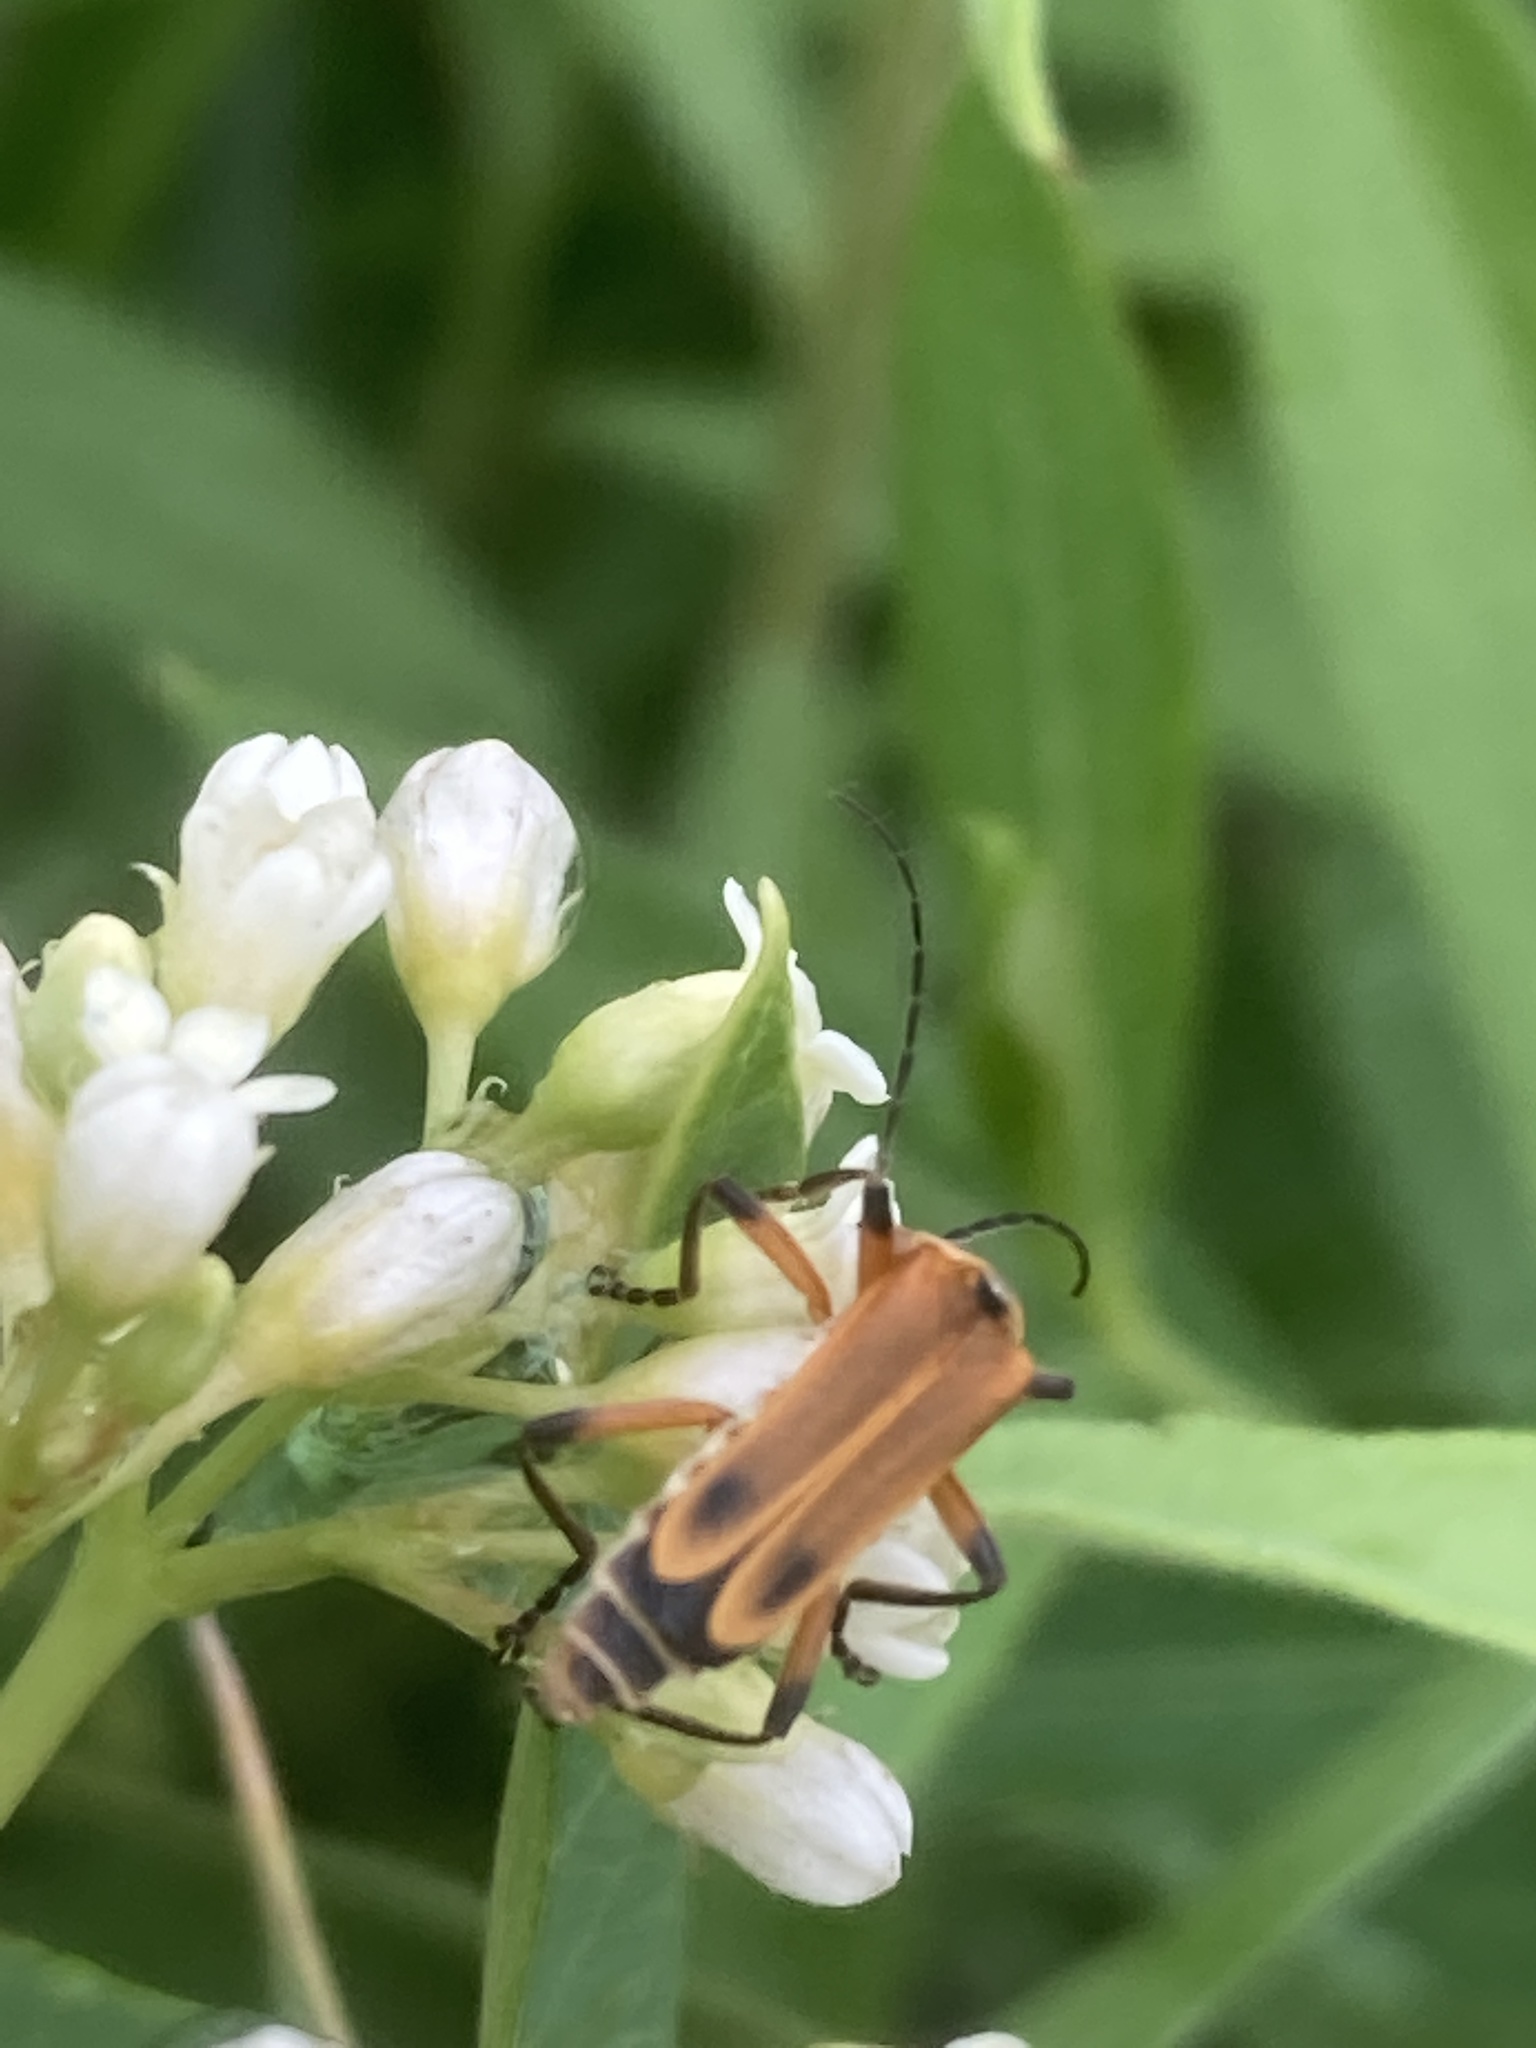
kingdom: Animalia
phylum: Arthropoda
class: Insecta
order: Coleoptera
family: Cantharidae
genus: Chauliognathus
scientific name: Chauliognathus marginatus
